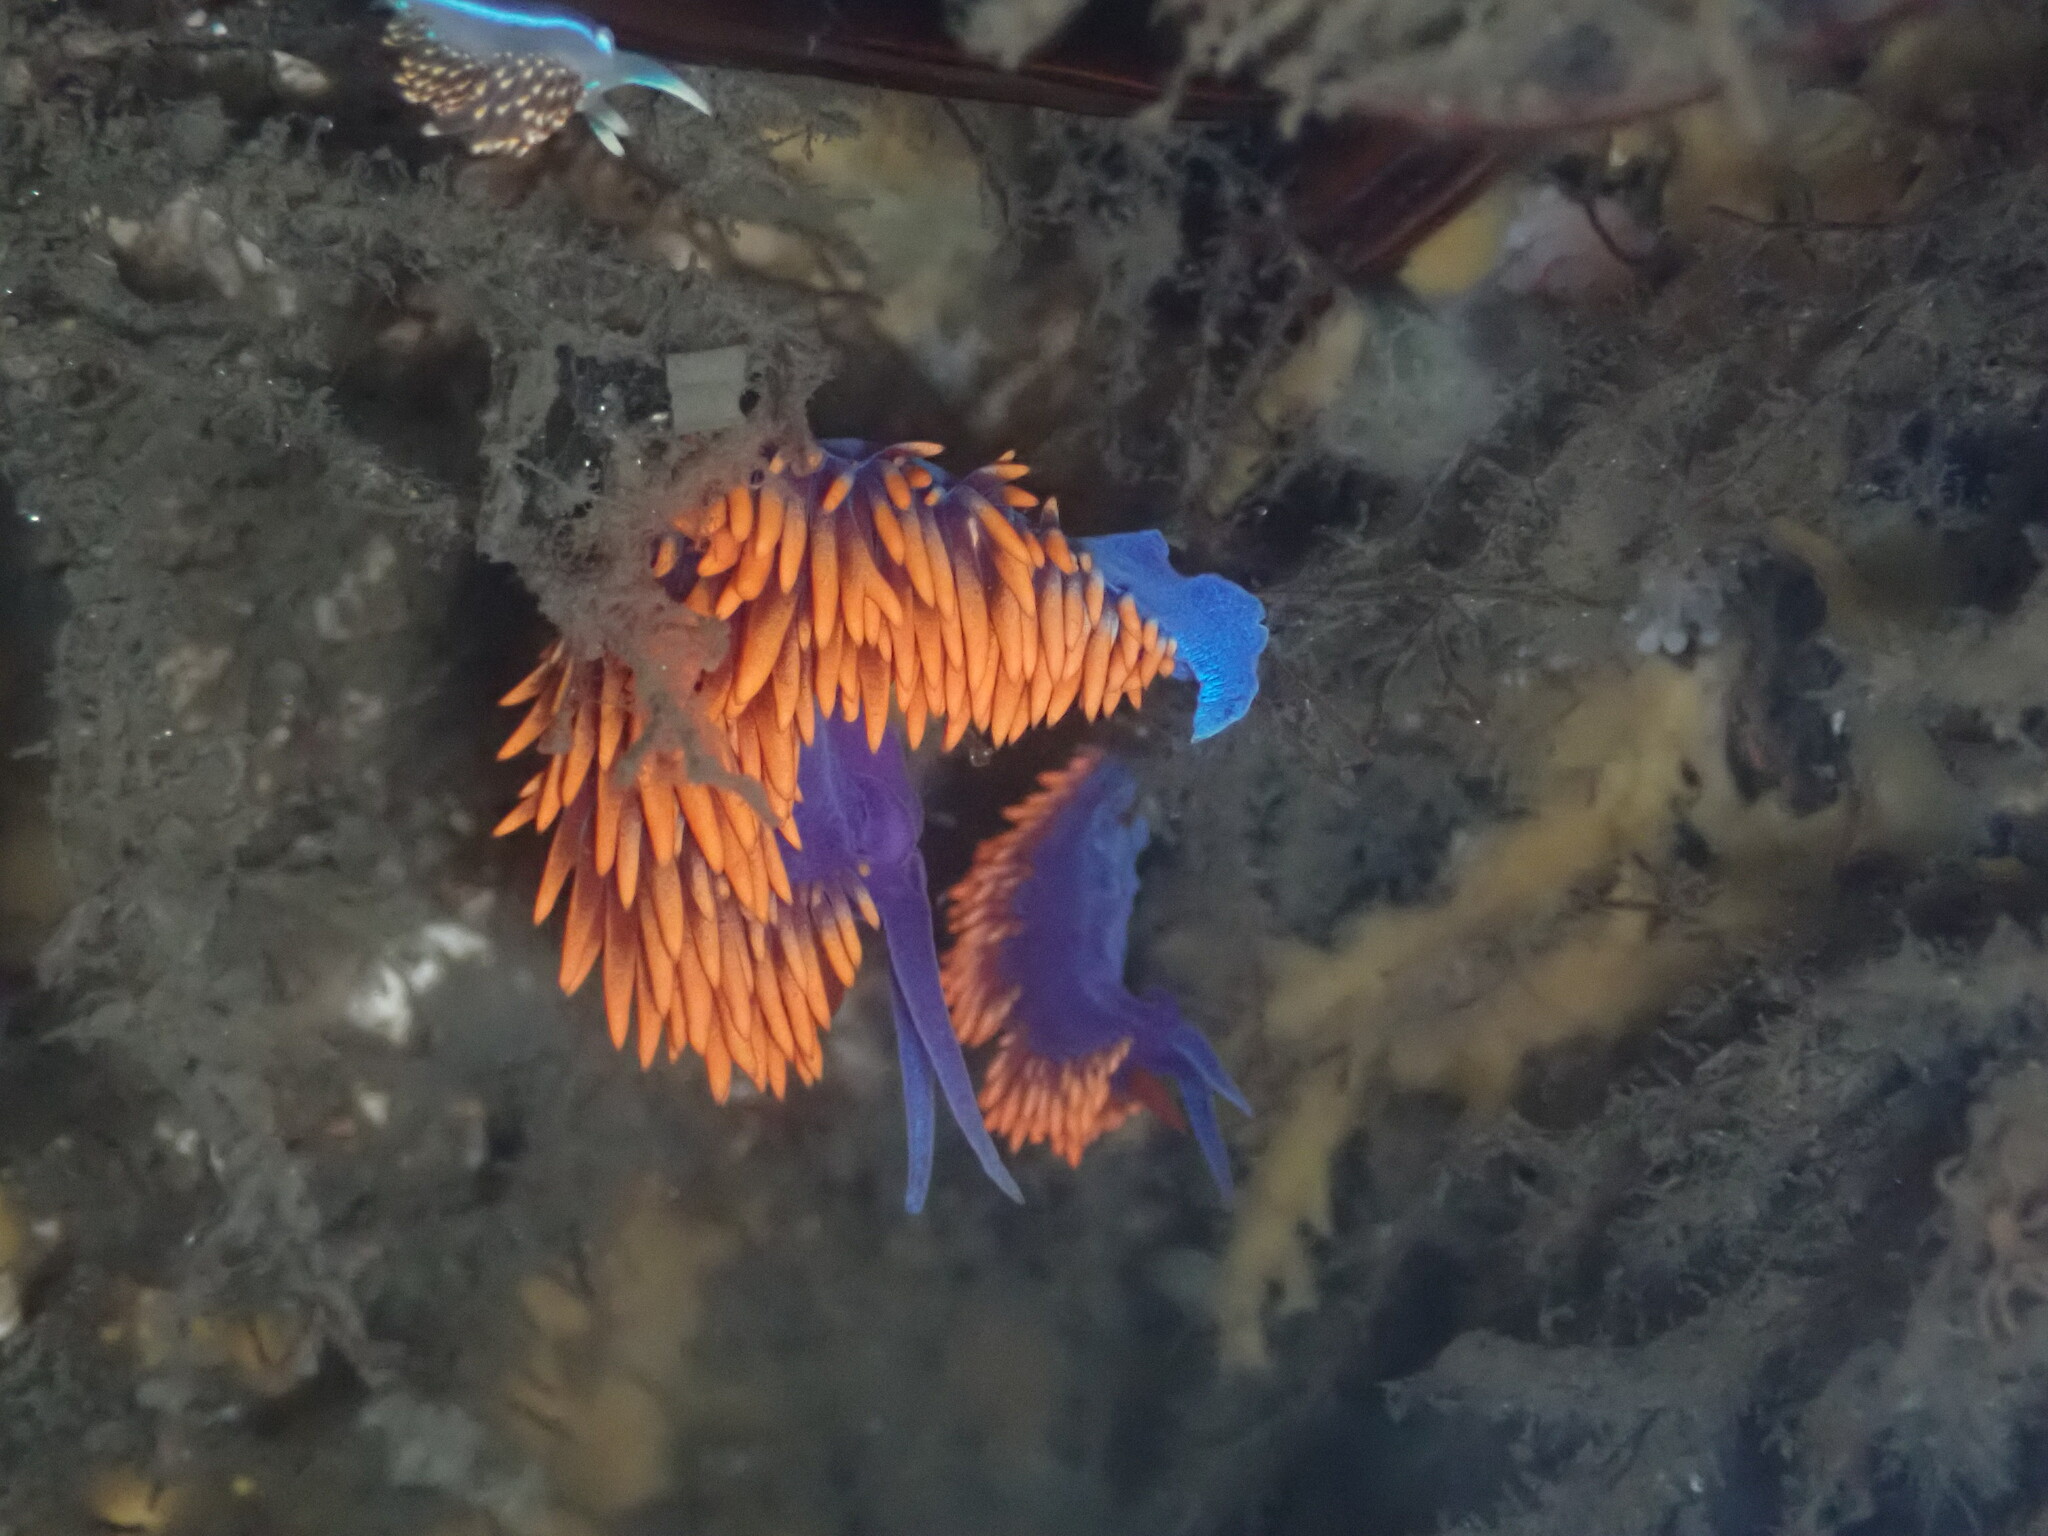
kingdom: Animalia
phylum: Mollusca
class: Gastropoda
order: Nudibranchia
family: Flabellinopsidae
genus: Flabellinopsis
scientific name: Flabellinopsis iodinea
